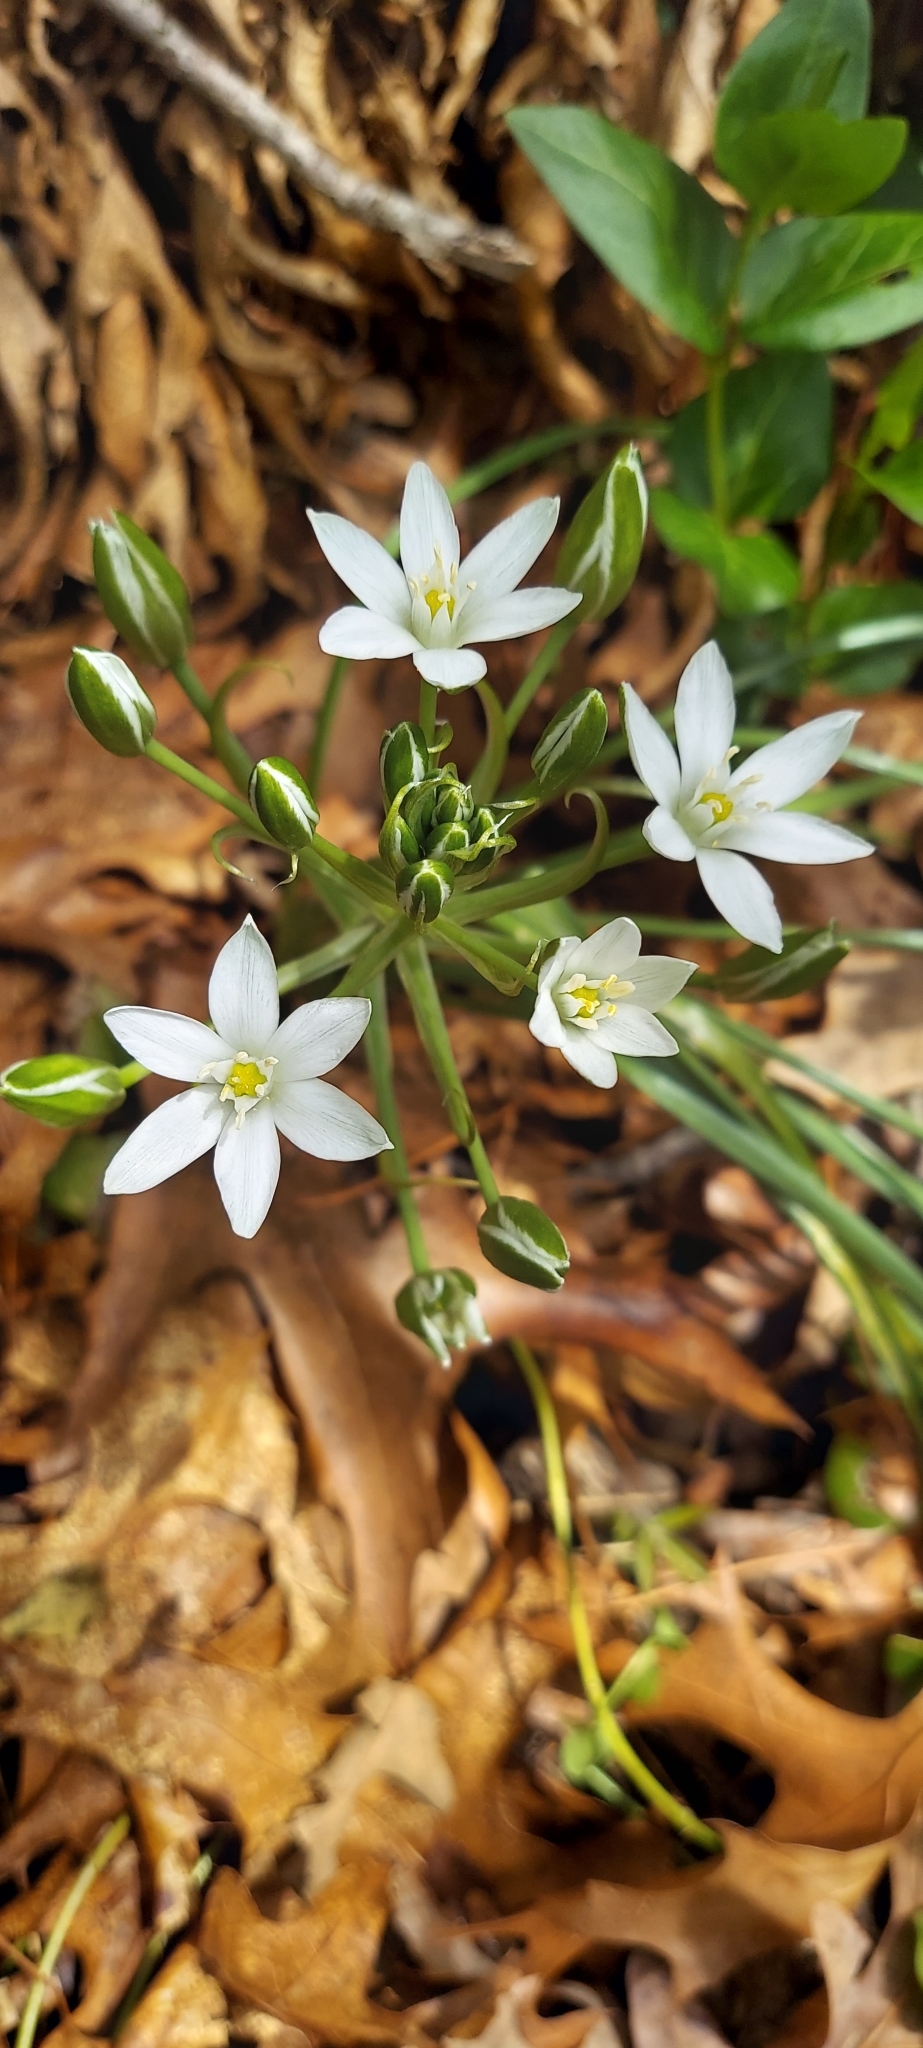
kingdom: Plantae
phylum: Tracheophyta
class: Liliopsida
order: Asparagales
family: Asparagaceae
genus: Ornithogalum
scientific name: Ornithogalum umbellatum
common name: Garden star-of-bethlehem
